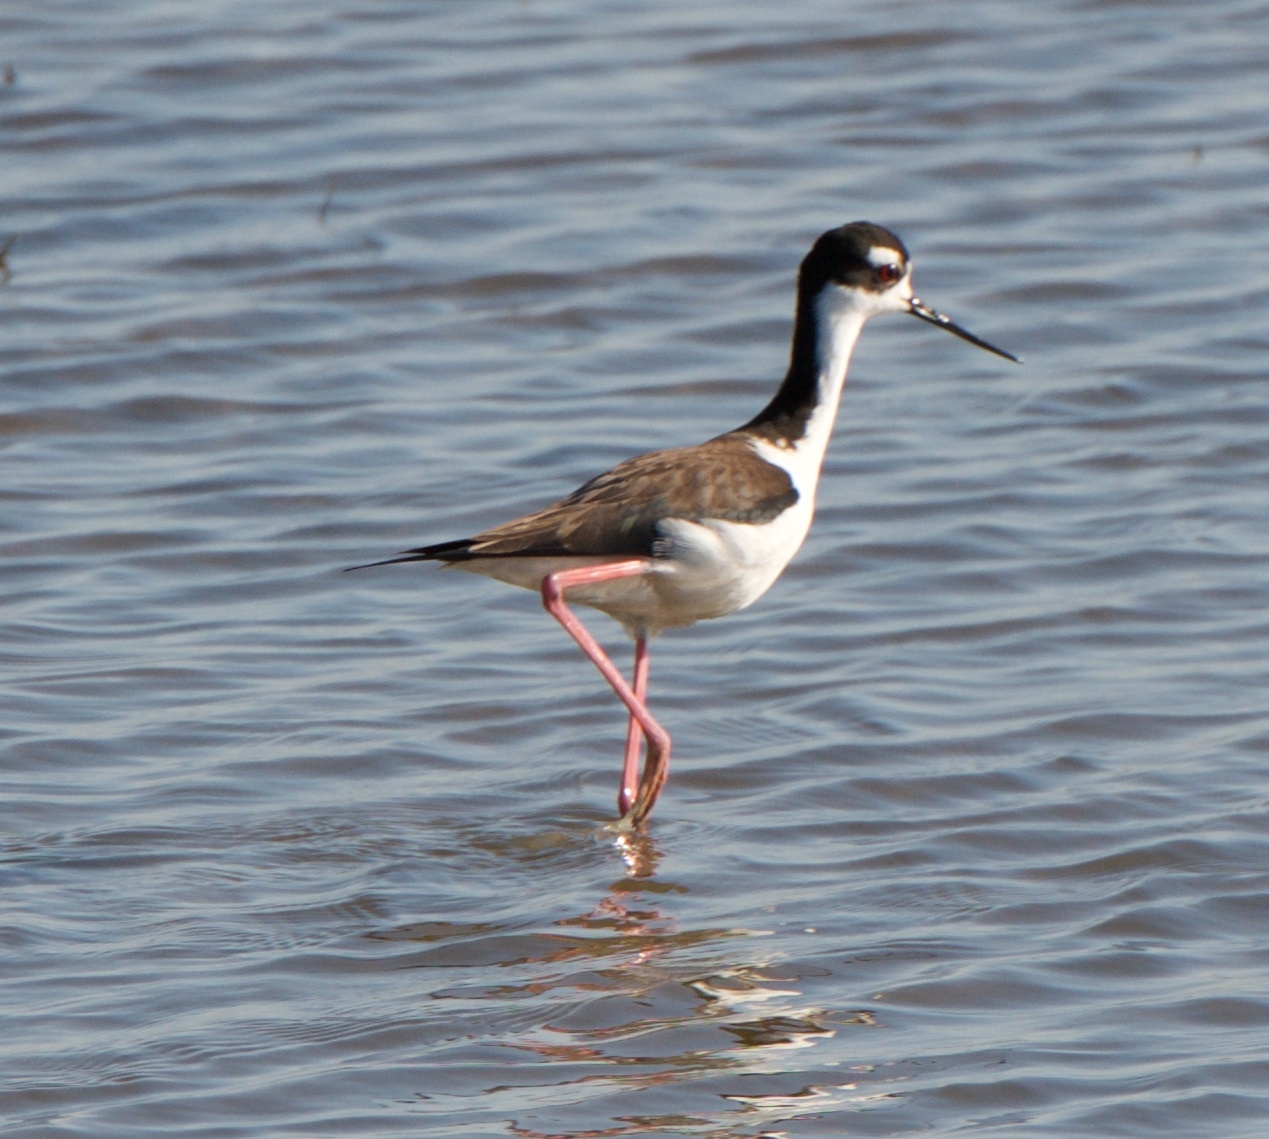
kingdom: Animalia
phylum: Chordata
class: Aves
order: Charadriiformes
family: Recurvirostridae
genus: Himantopus
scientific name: Himantopus mexicanus
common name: Black-necked stilt
